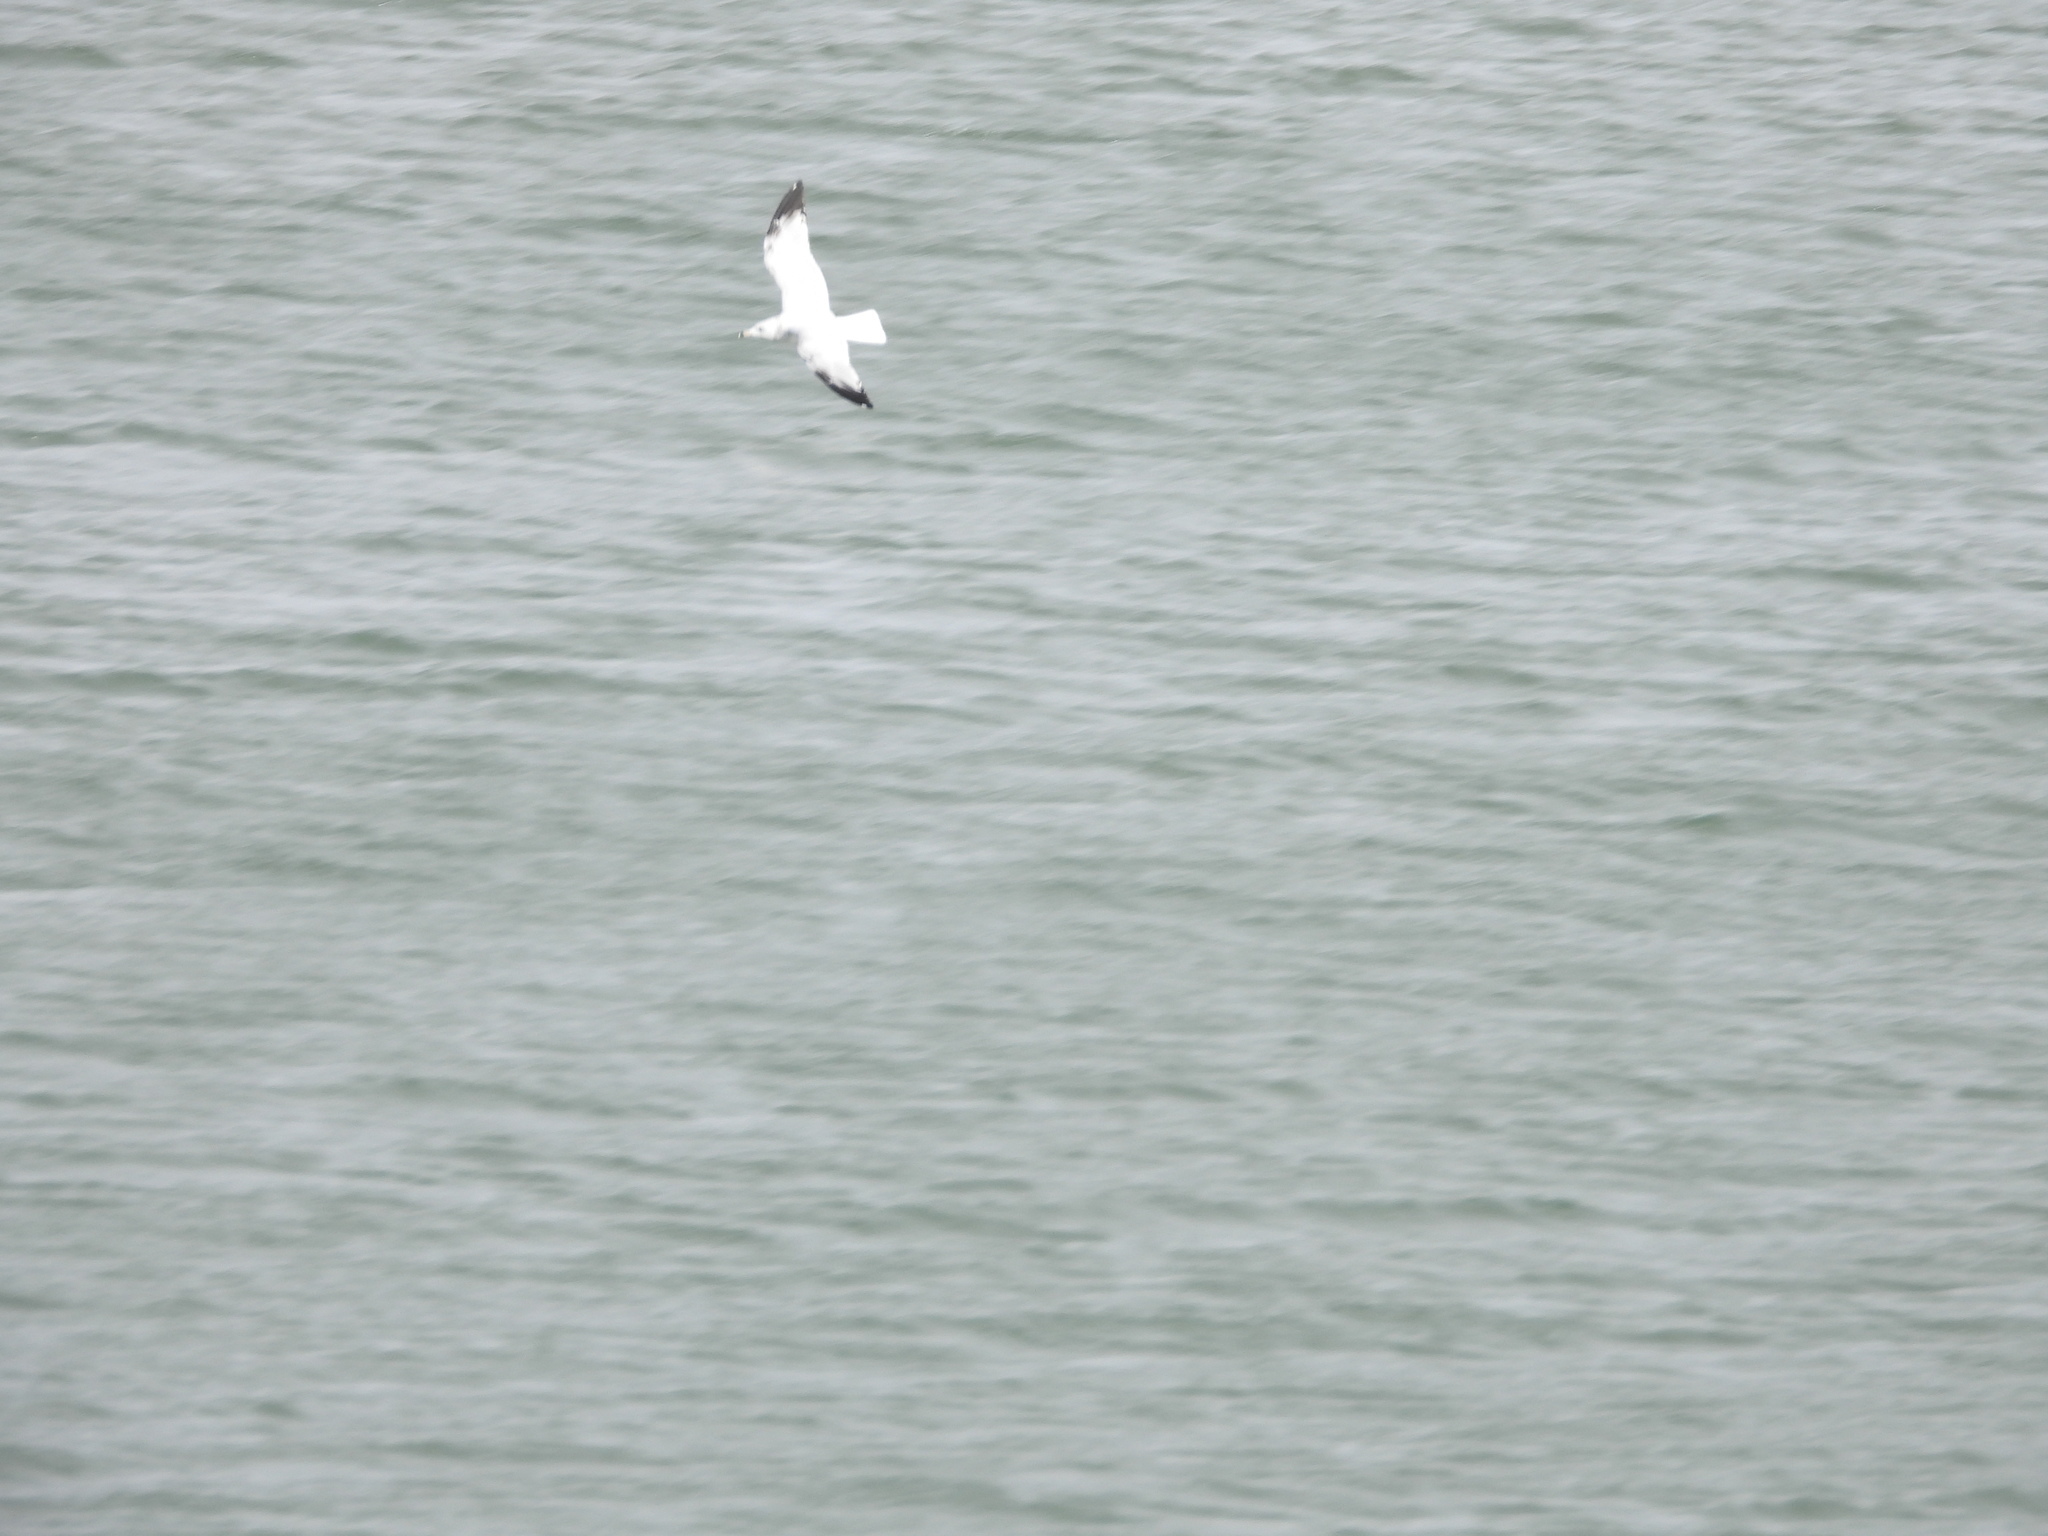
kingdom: Animalia
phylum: Chordata
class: Aves
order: Charadriiformes
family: Laridae
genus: Larus
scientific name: Larus delawarensis
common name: Ring-billed gull
